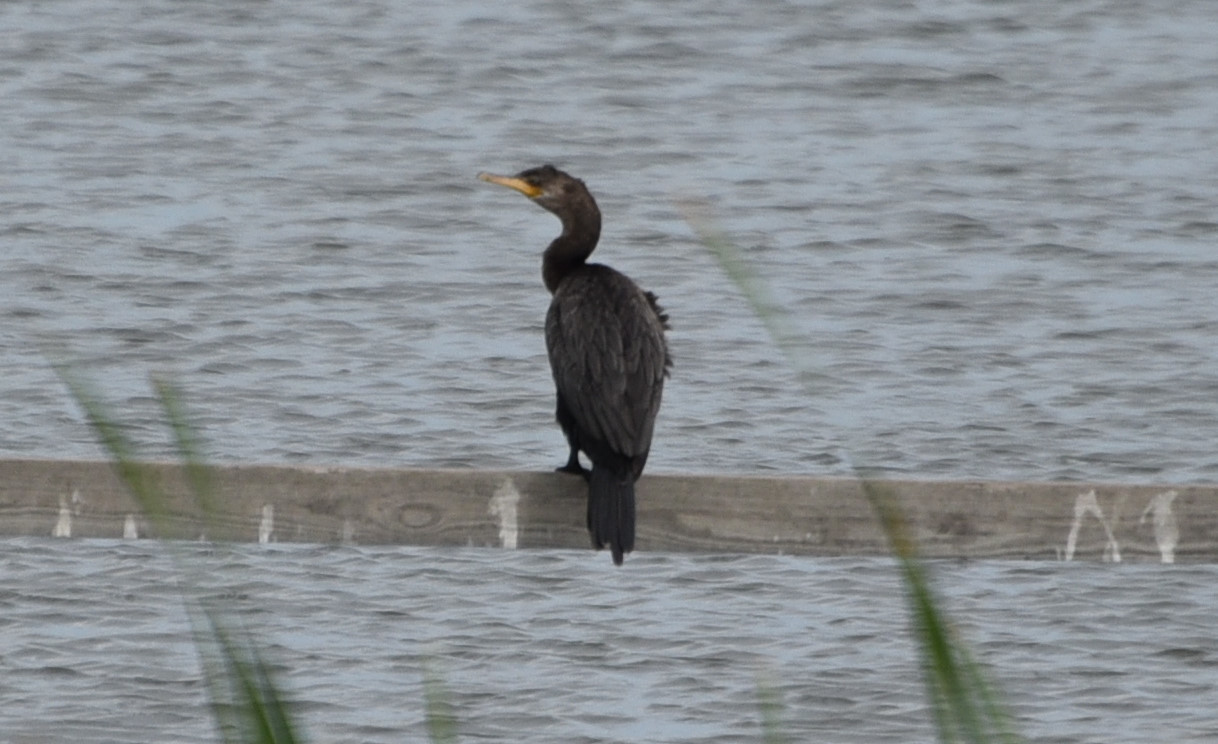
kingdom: Animalia
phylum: Chordata
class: Aves
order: Suliformes
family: Phalacrocoracidae
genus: Phalacrocorax
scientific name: Phalacrocorax brasilianus
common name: Neotropic cormorant
